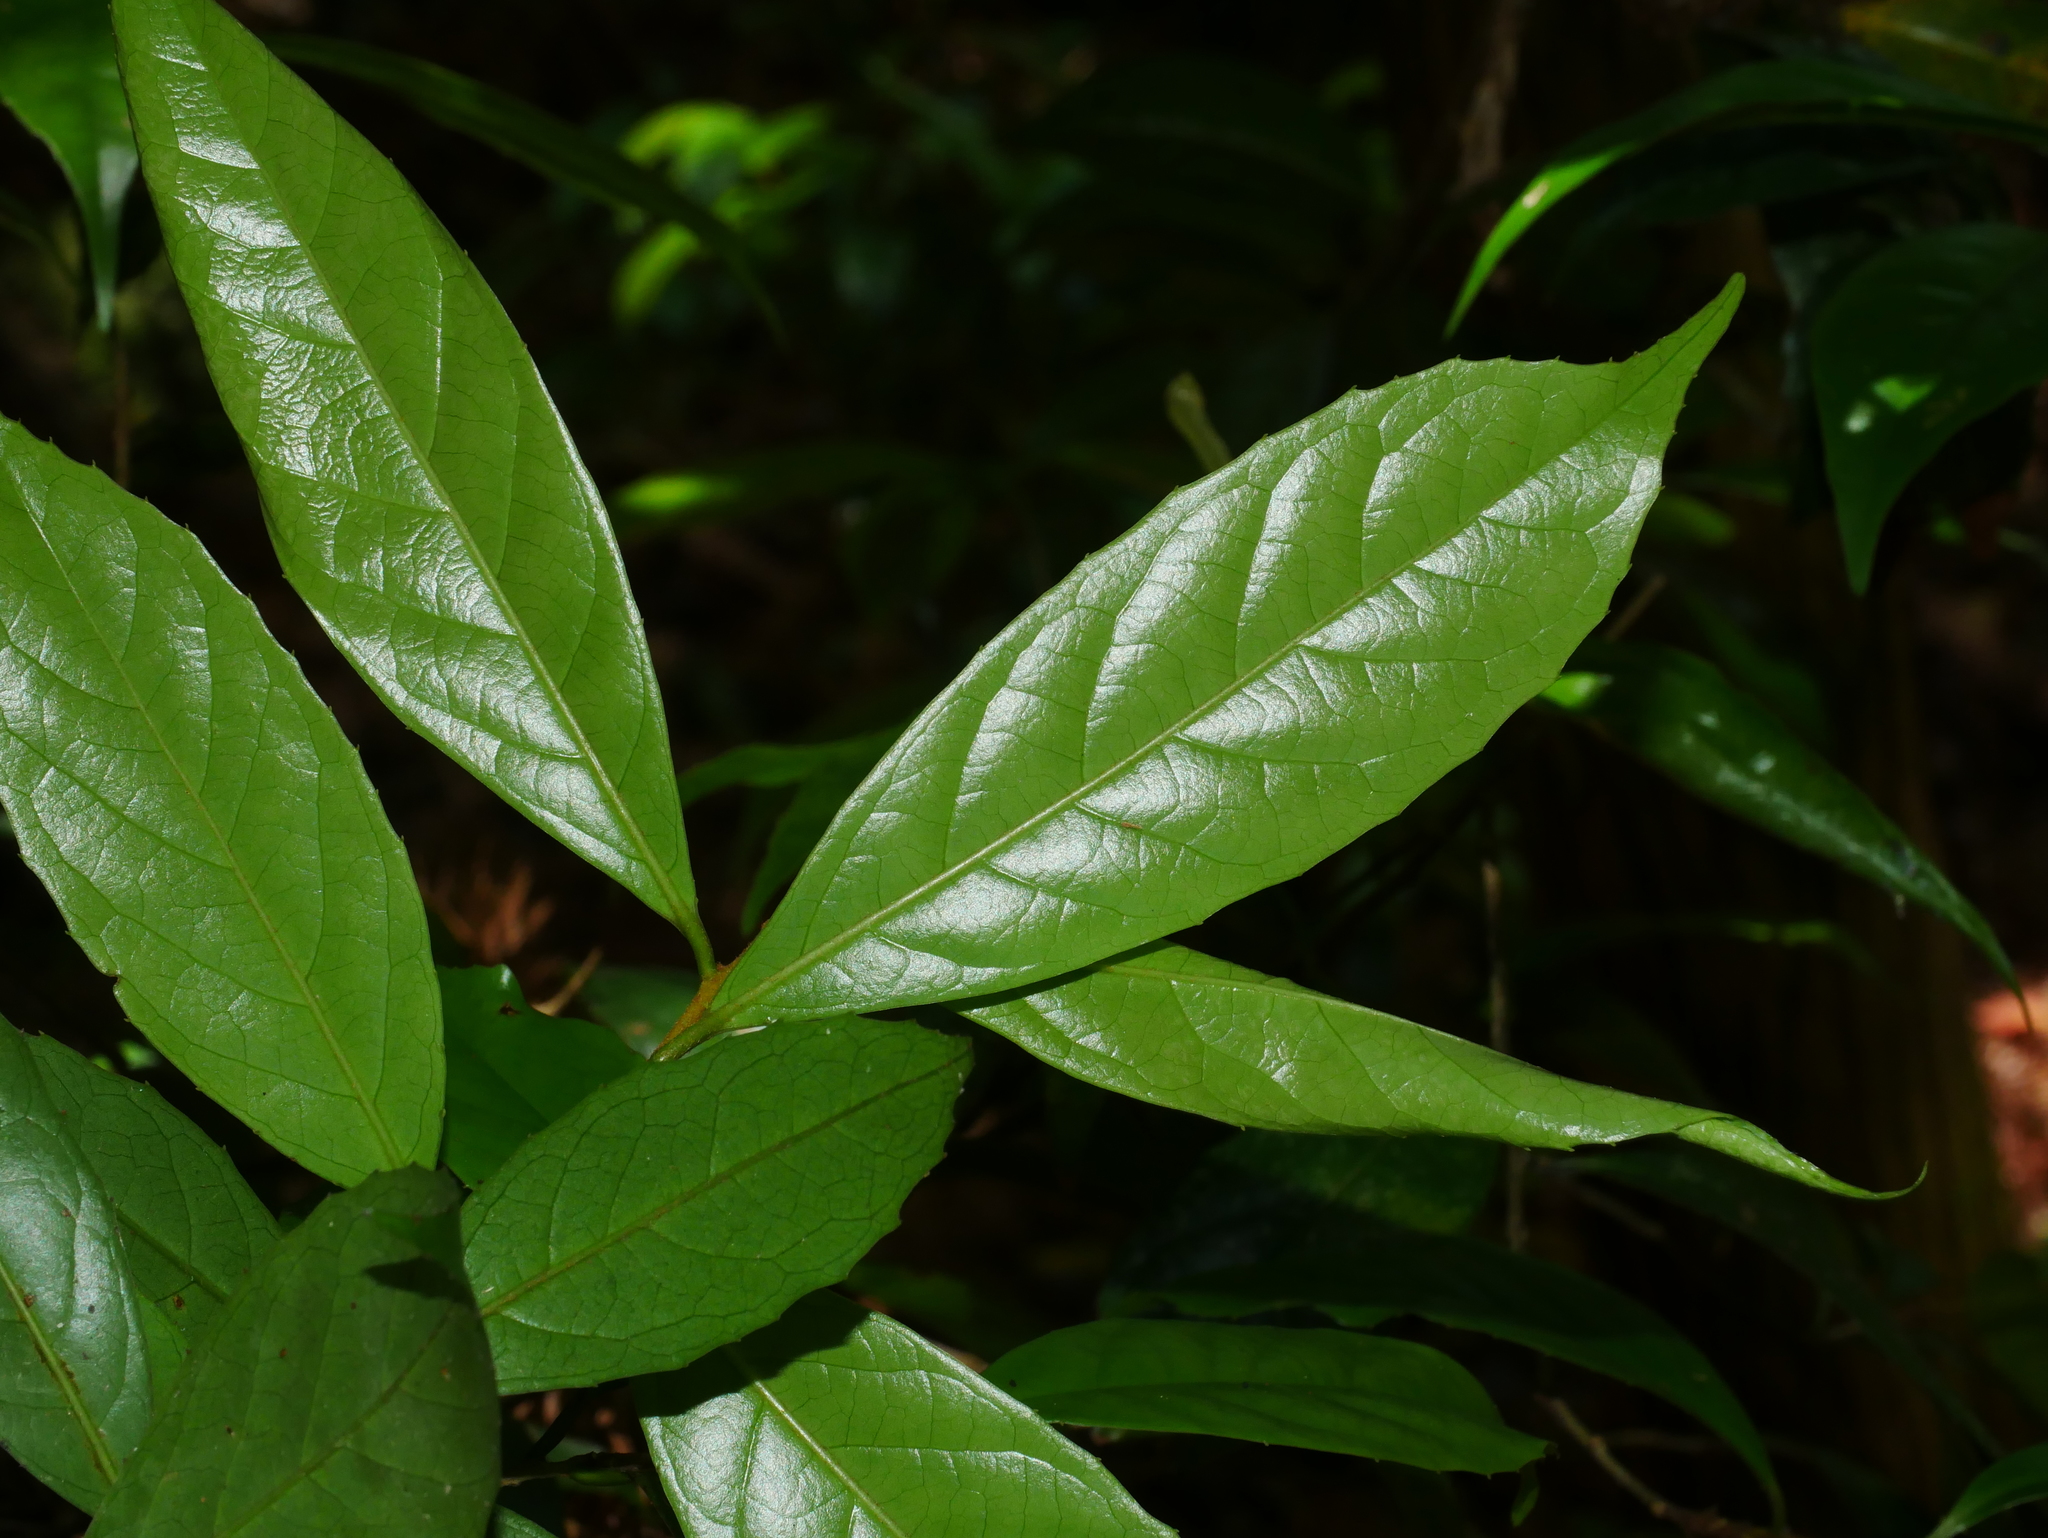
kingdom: Plantae
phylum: Tracheophyta
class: Magnoliopsida
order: Ericales
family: Symplocaceae
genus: Symplocos
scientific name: Symplocos theifolia
